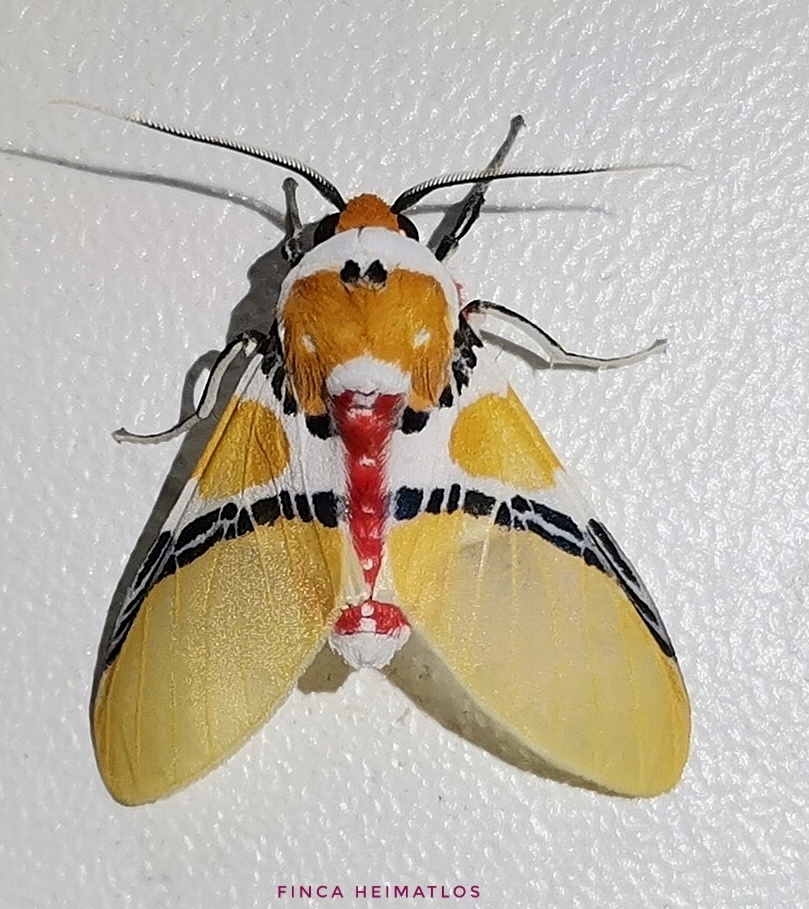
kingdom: Animalia
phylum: Arthropoda
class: Insecta
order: Lepidoptera
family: Erebidae
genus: Idalus
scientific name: Idalus critheis
